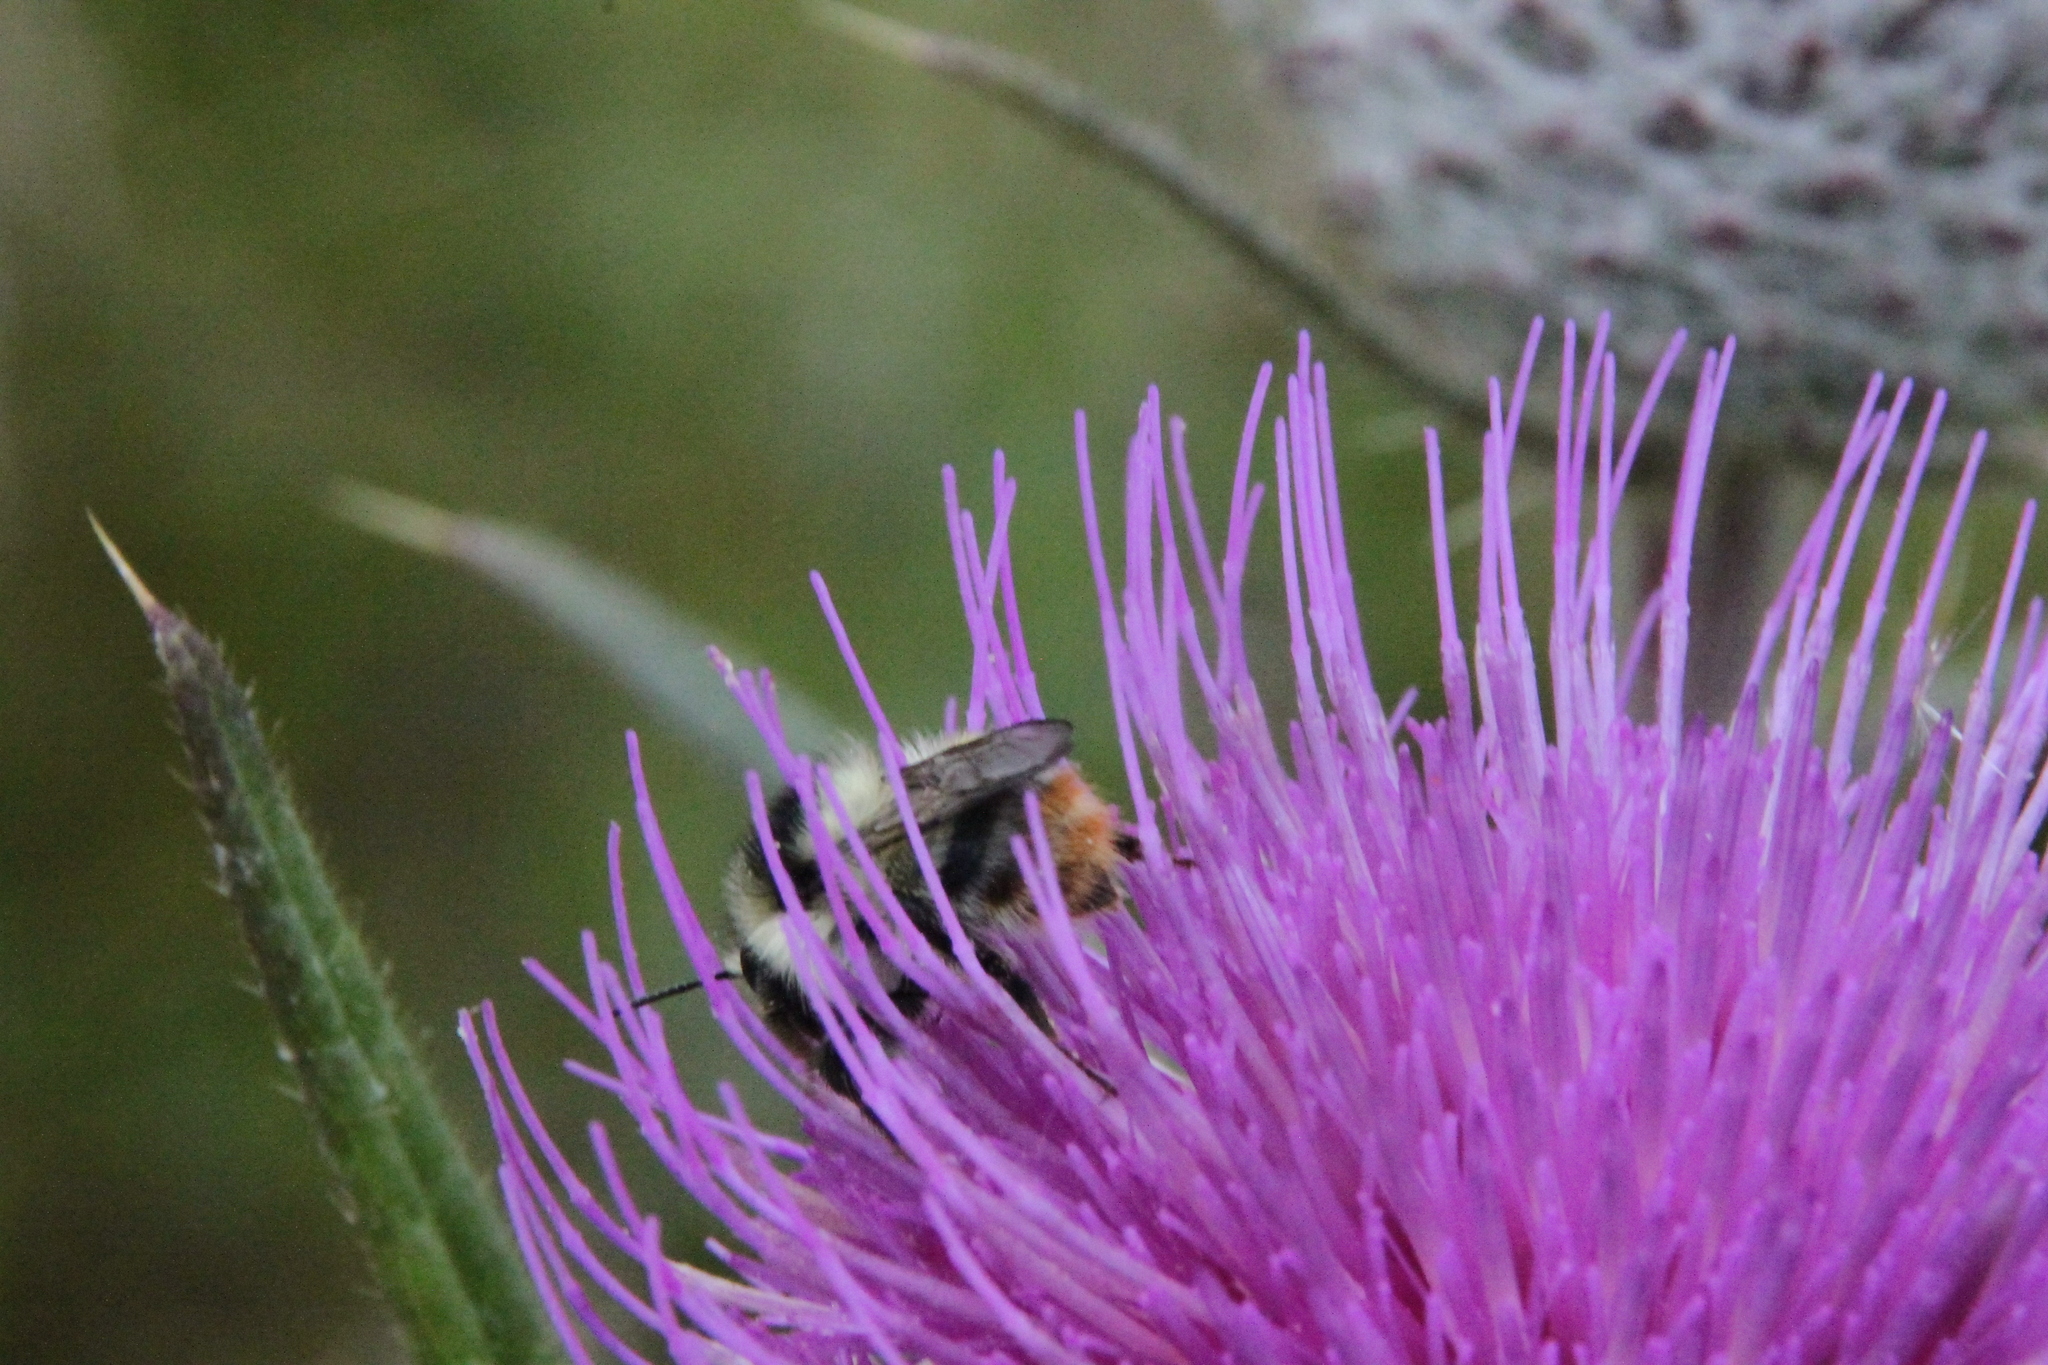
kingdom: Plantae
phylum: Tracheophyta
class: Magnoliopsida
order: Asterales
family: Asteraceae
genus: Lophiolepis
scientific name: Lophiolepis decussata
